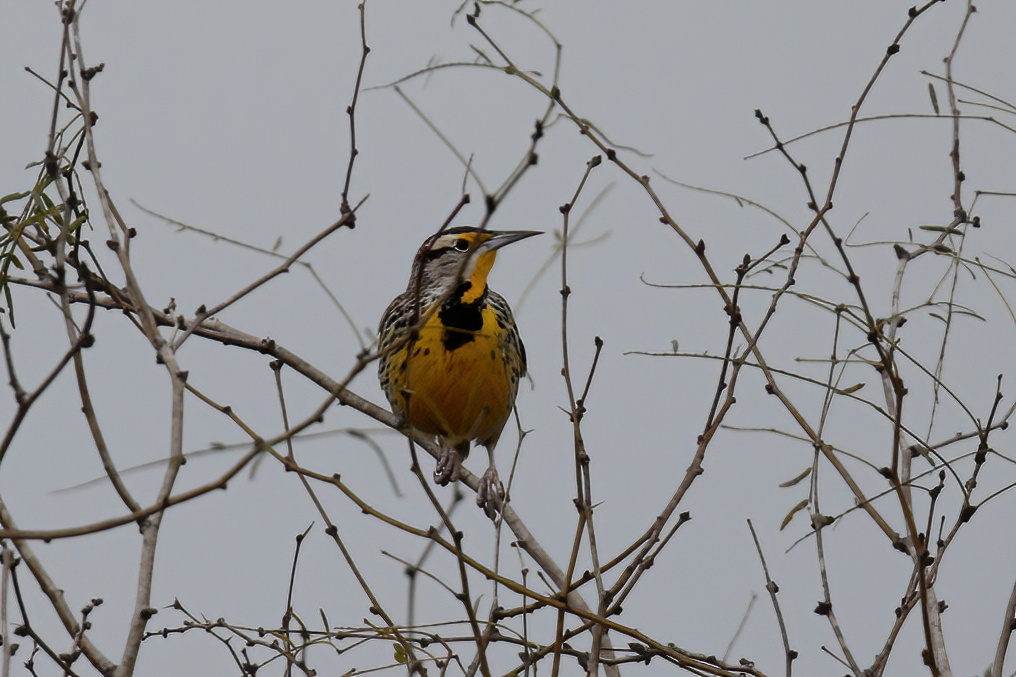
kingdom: Animalia
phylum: Chordata
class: Aves
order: Passeriformes
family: Icteridae
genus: Sturnella
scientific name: Sturnella magna
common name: Eastern meadowlark
